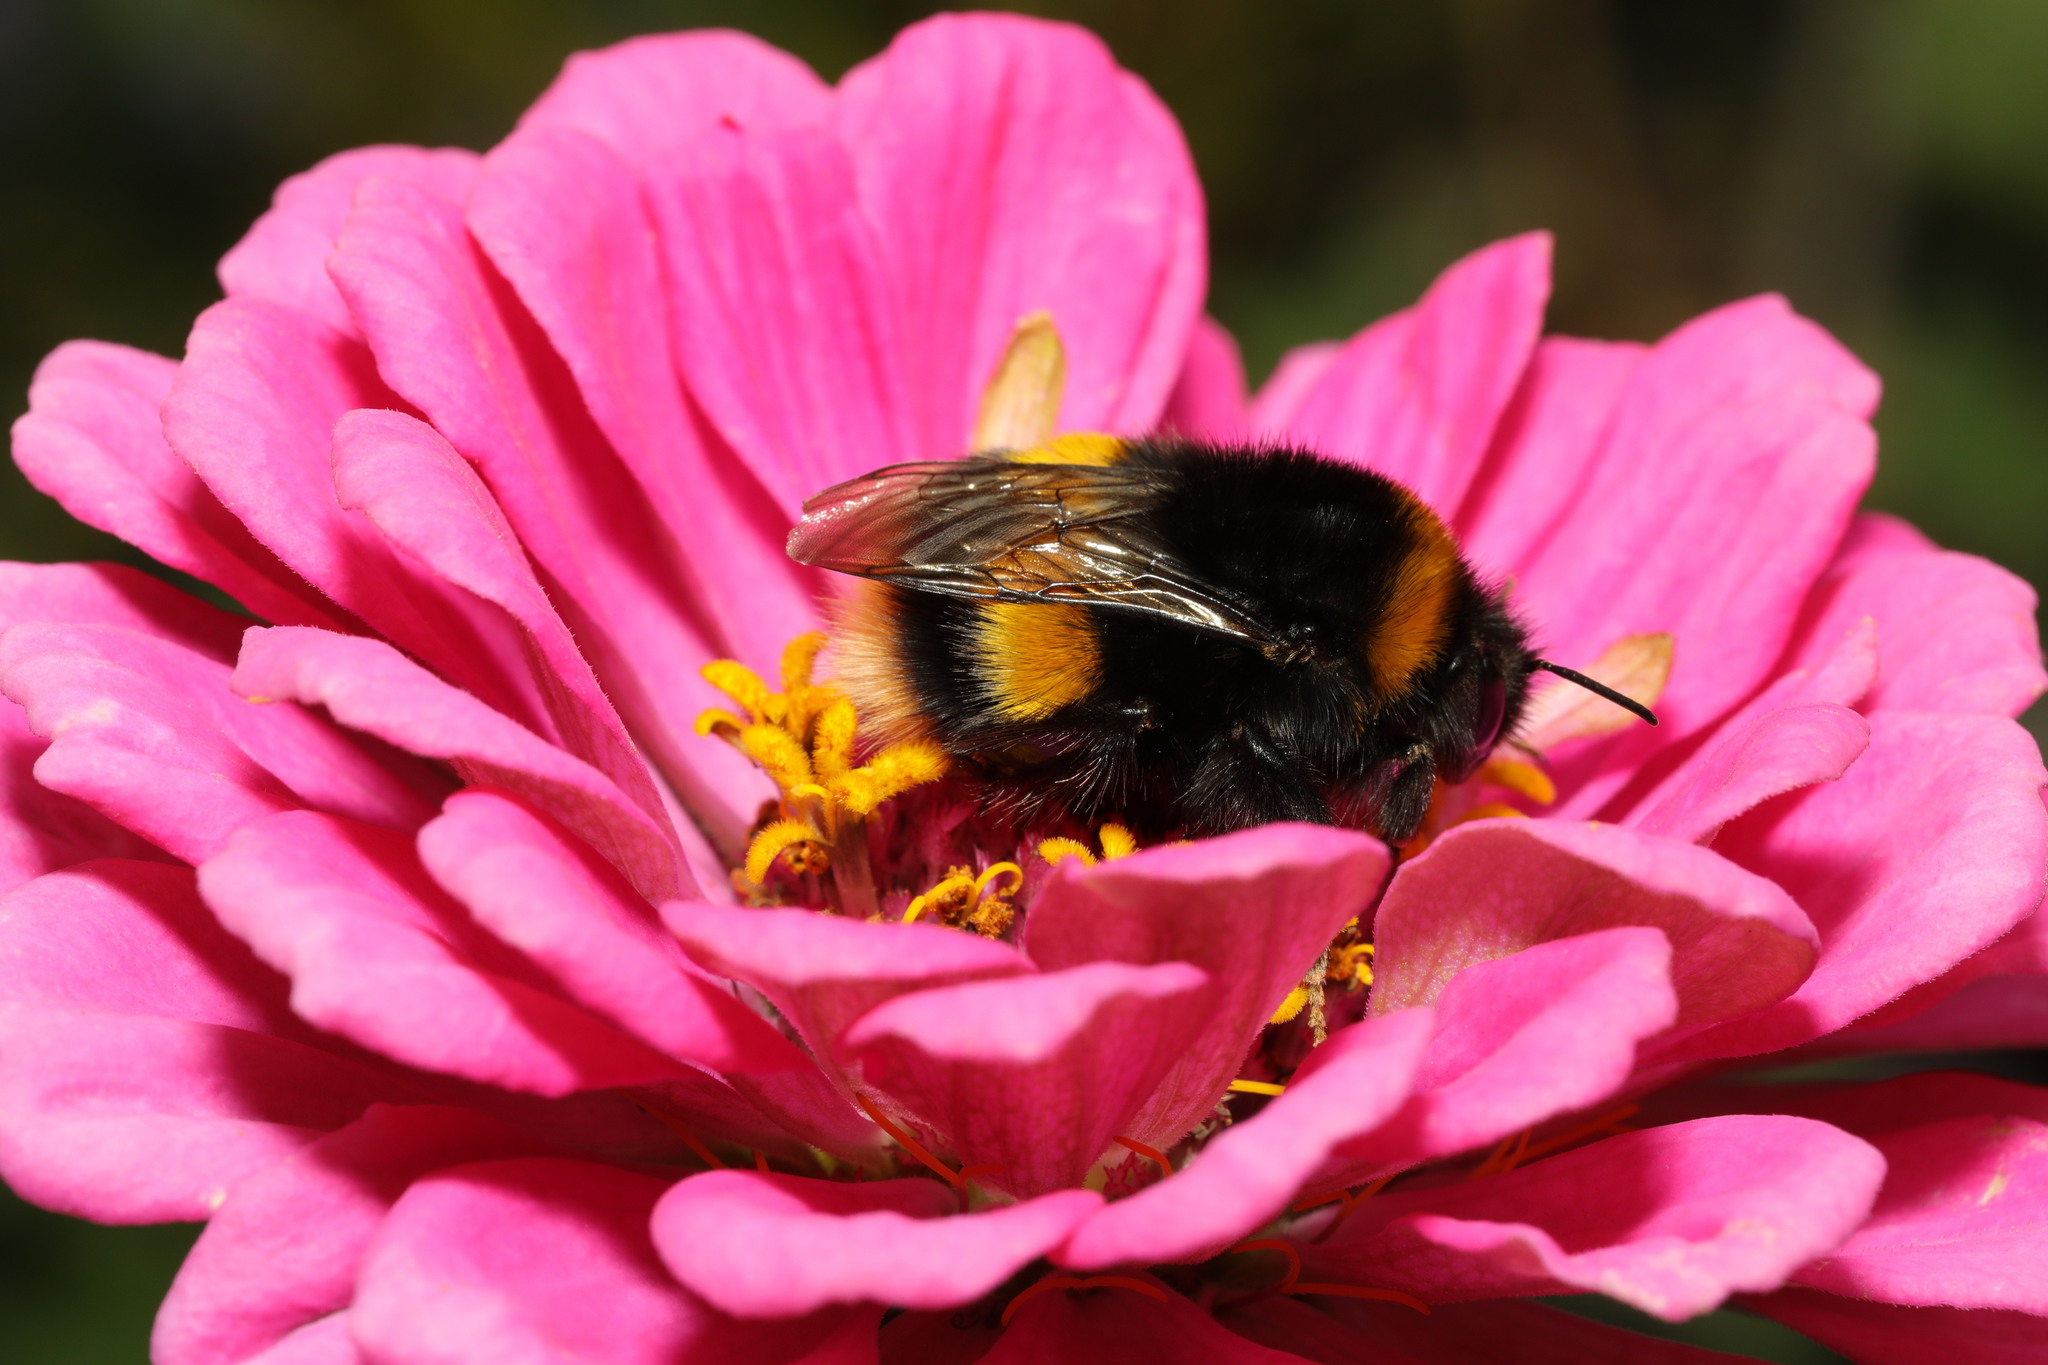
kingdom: Animalia
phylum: Arthropoda
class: Insecta
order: Hymenoptera
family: Apidae
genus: Bombus
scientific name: Bombus terrestris
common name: Buff-tailed bumblebee
